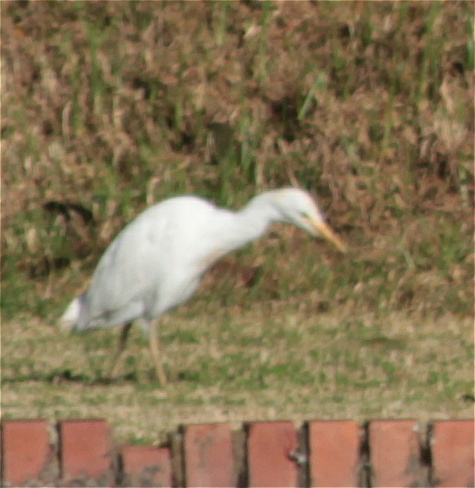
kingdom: Animalia
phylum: Chordata
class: Aves
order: Pelecaniformes
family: Ardeidae
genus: Bubulcus
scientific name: Bubulcus ibis
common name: Cattle egret
